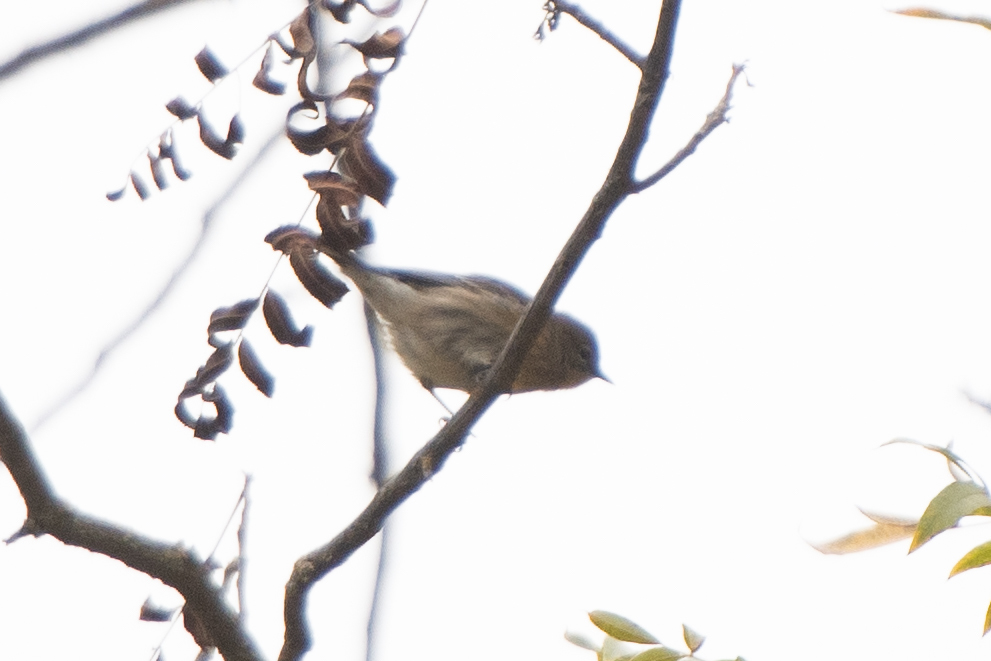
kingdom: Animalia
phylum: Chordata
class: Aves
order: Passeriformes
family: Parulidae
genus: Setophaga
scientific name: Setophaga coronata
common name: Myrtle warbler
